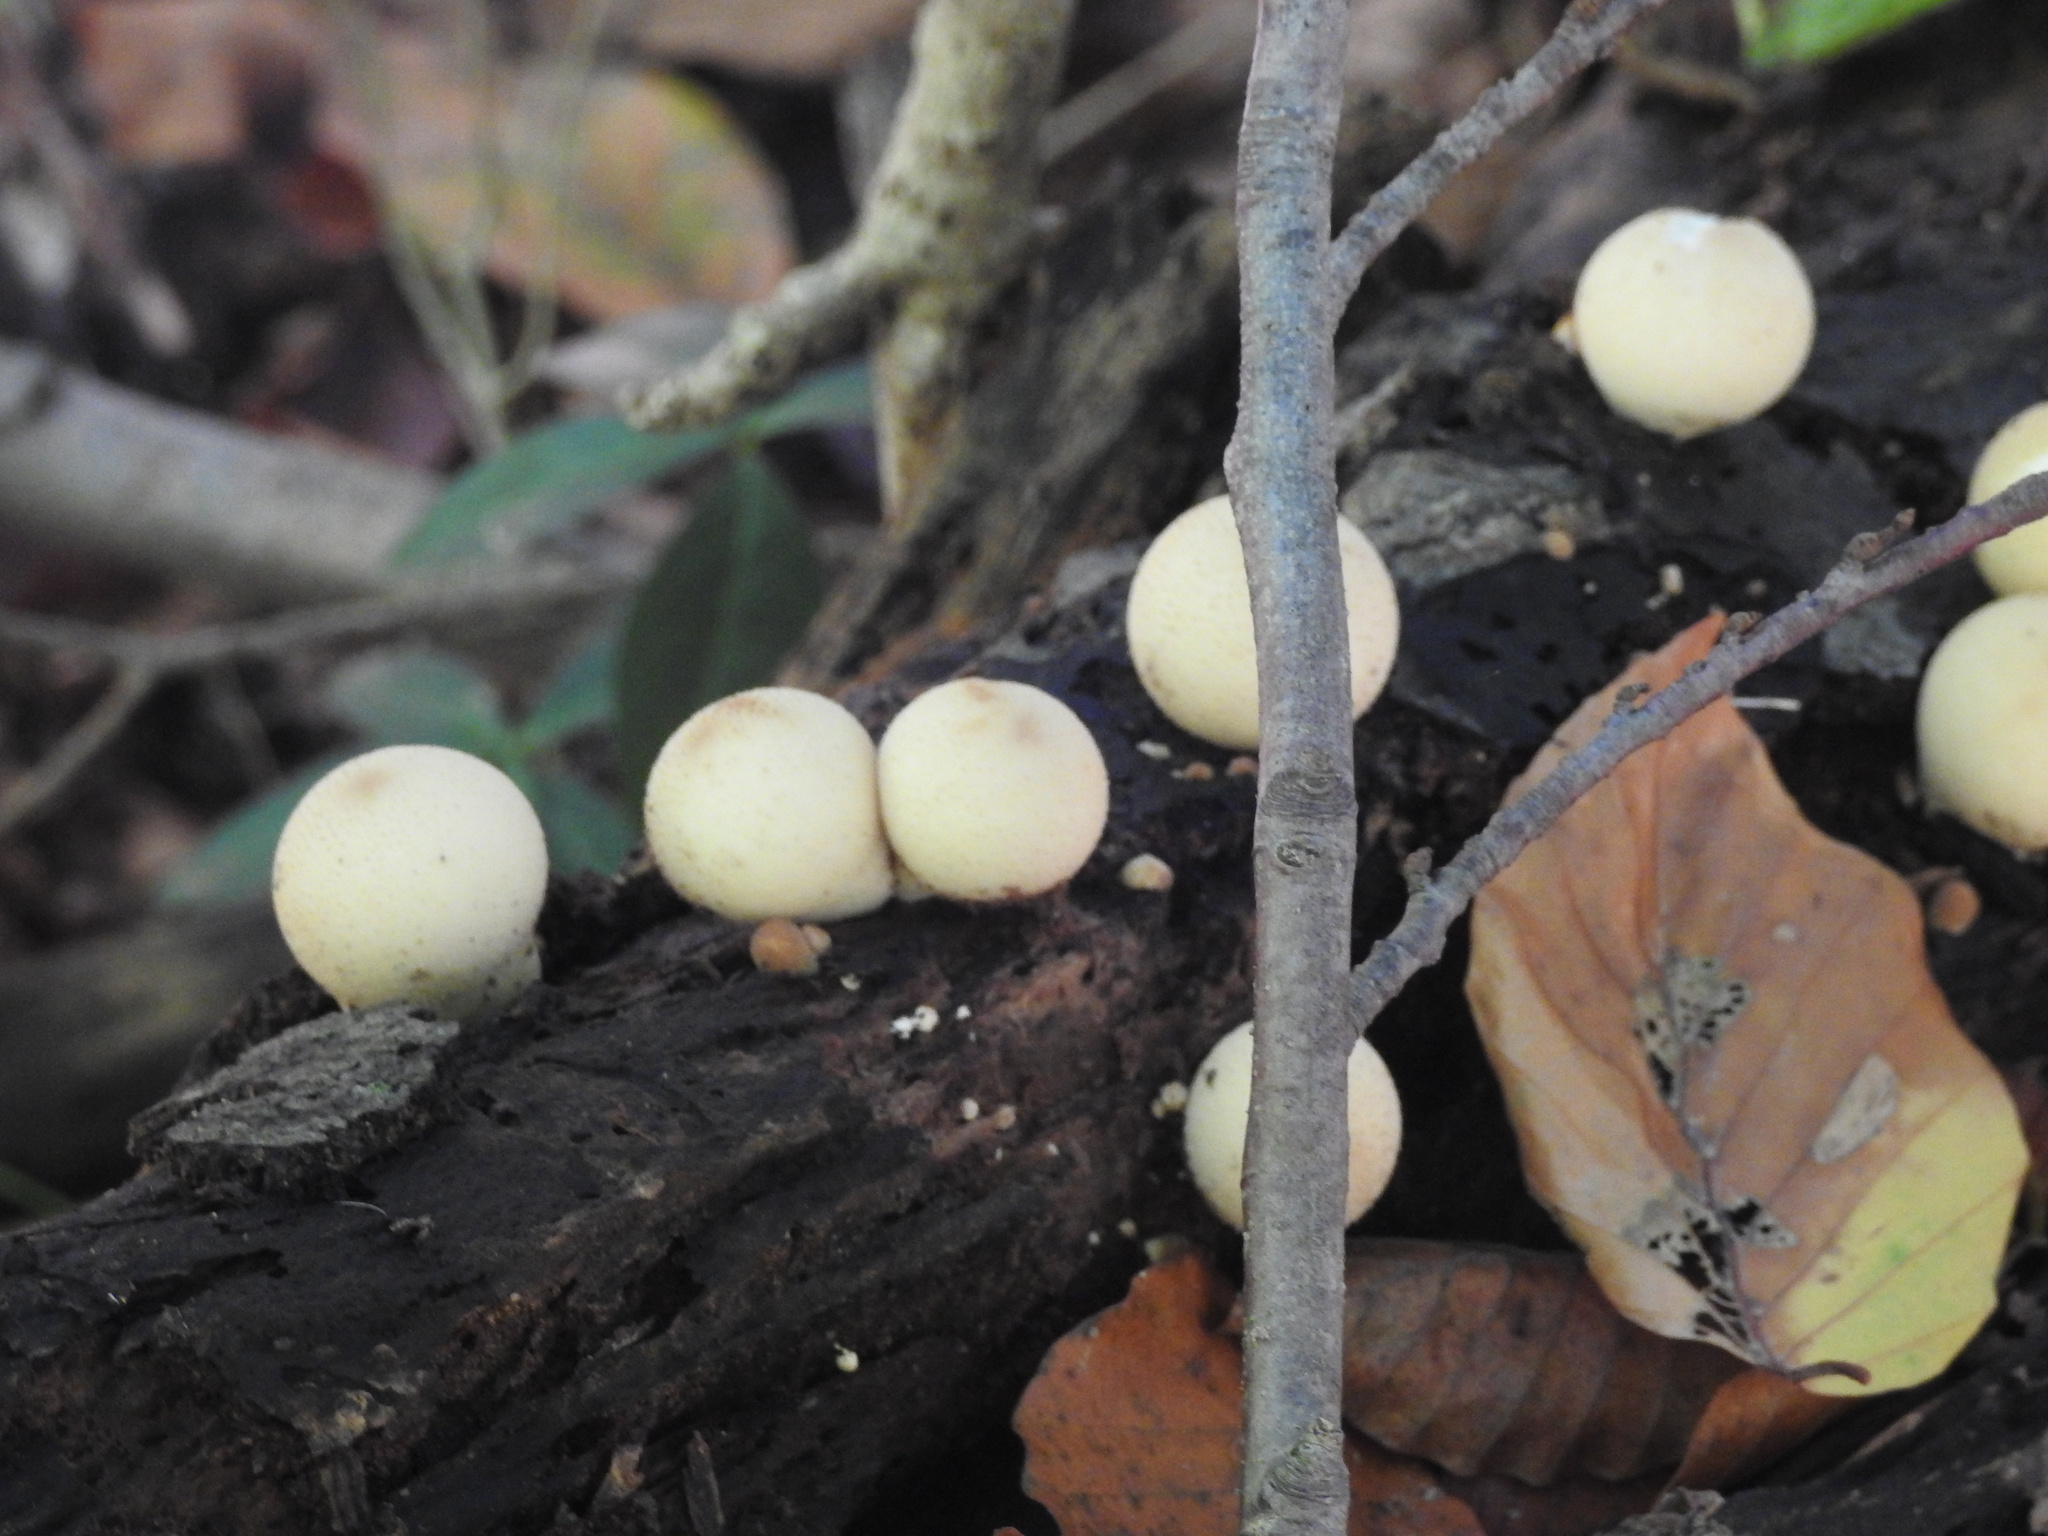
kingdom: Fungi
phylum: Basidiomycota
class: Agaricomycetes
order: Agaricales
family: Lycoperdaceae
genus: Apioperdon
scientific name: Apioperdon pyriforme
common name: Pear-shaped puffball
